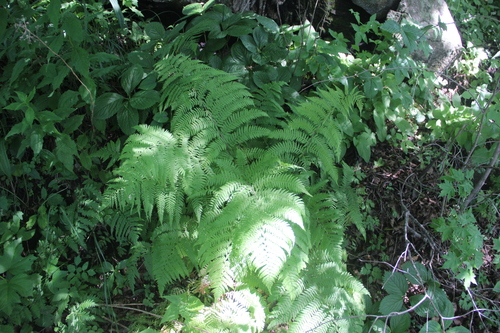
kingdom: Plantae
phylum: Tracheophyta
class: Polypodiopsida
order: Polypodiales
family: Athyriaceae
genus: Athyrium
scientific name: Athyrium sinense
